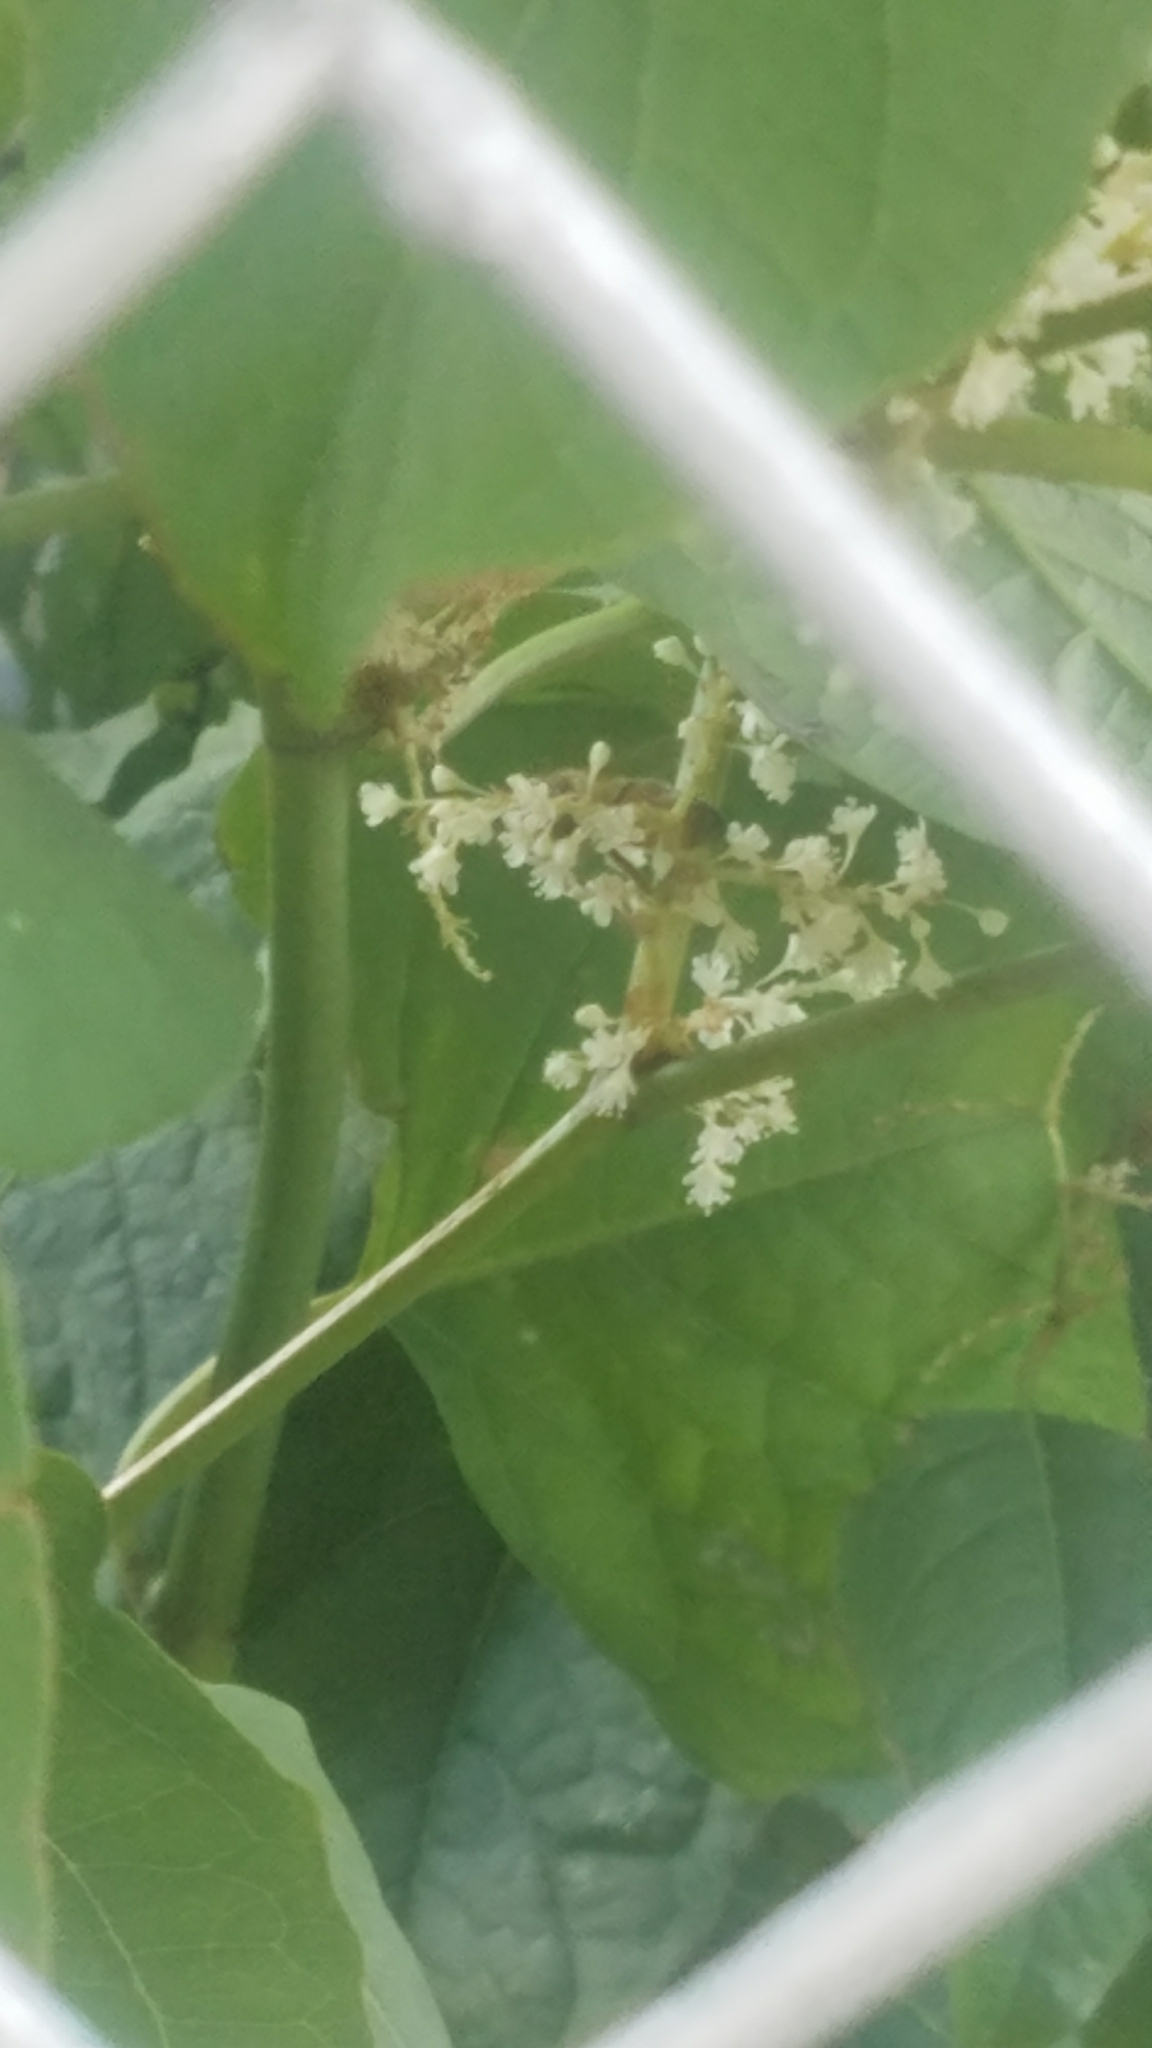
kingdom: Animalia
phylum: Arthropoda
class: Insecta
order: Hymenoptera
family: Apidae
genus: Apis
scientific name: Apis mellifera
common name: Honey bee
